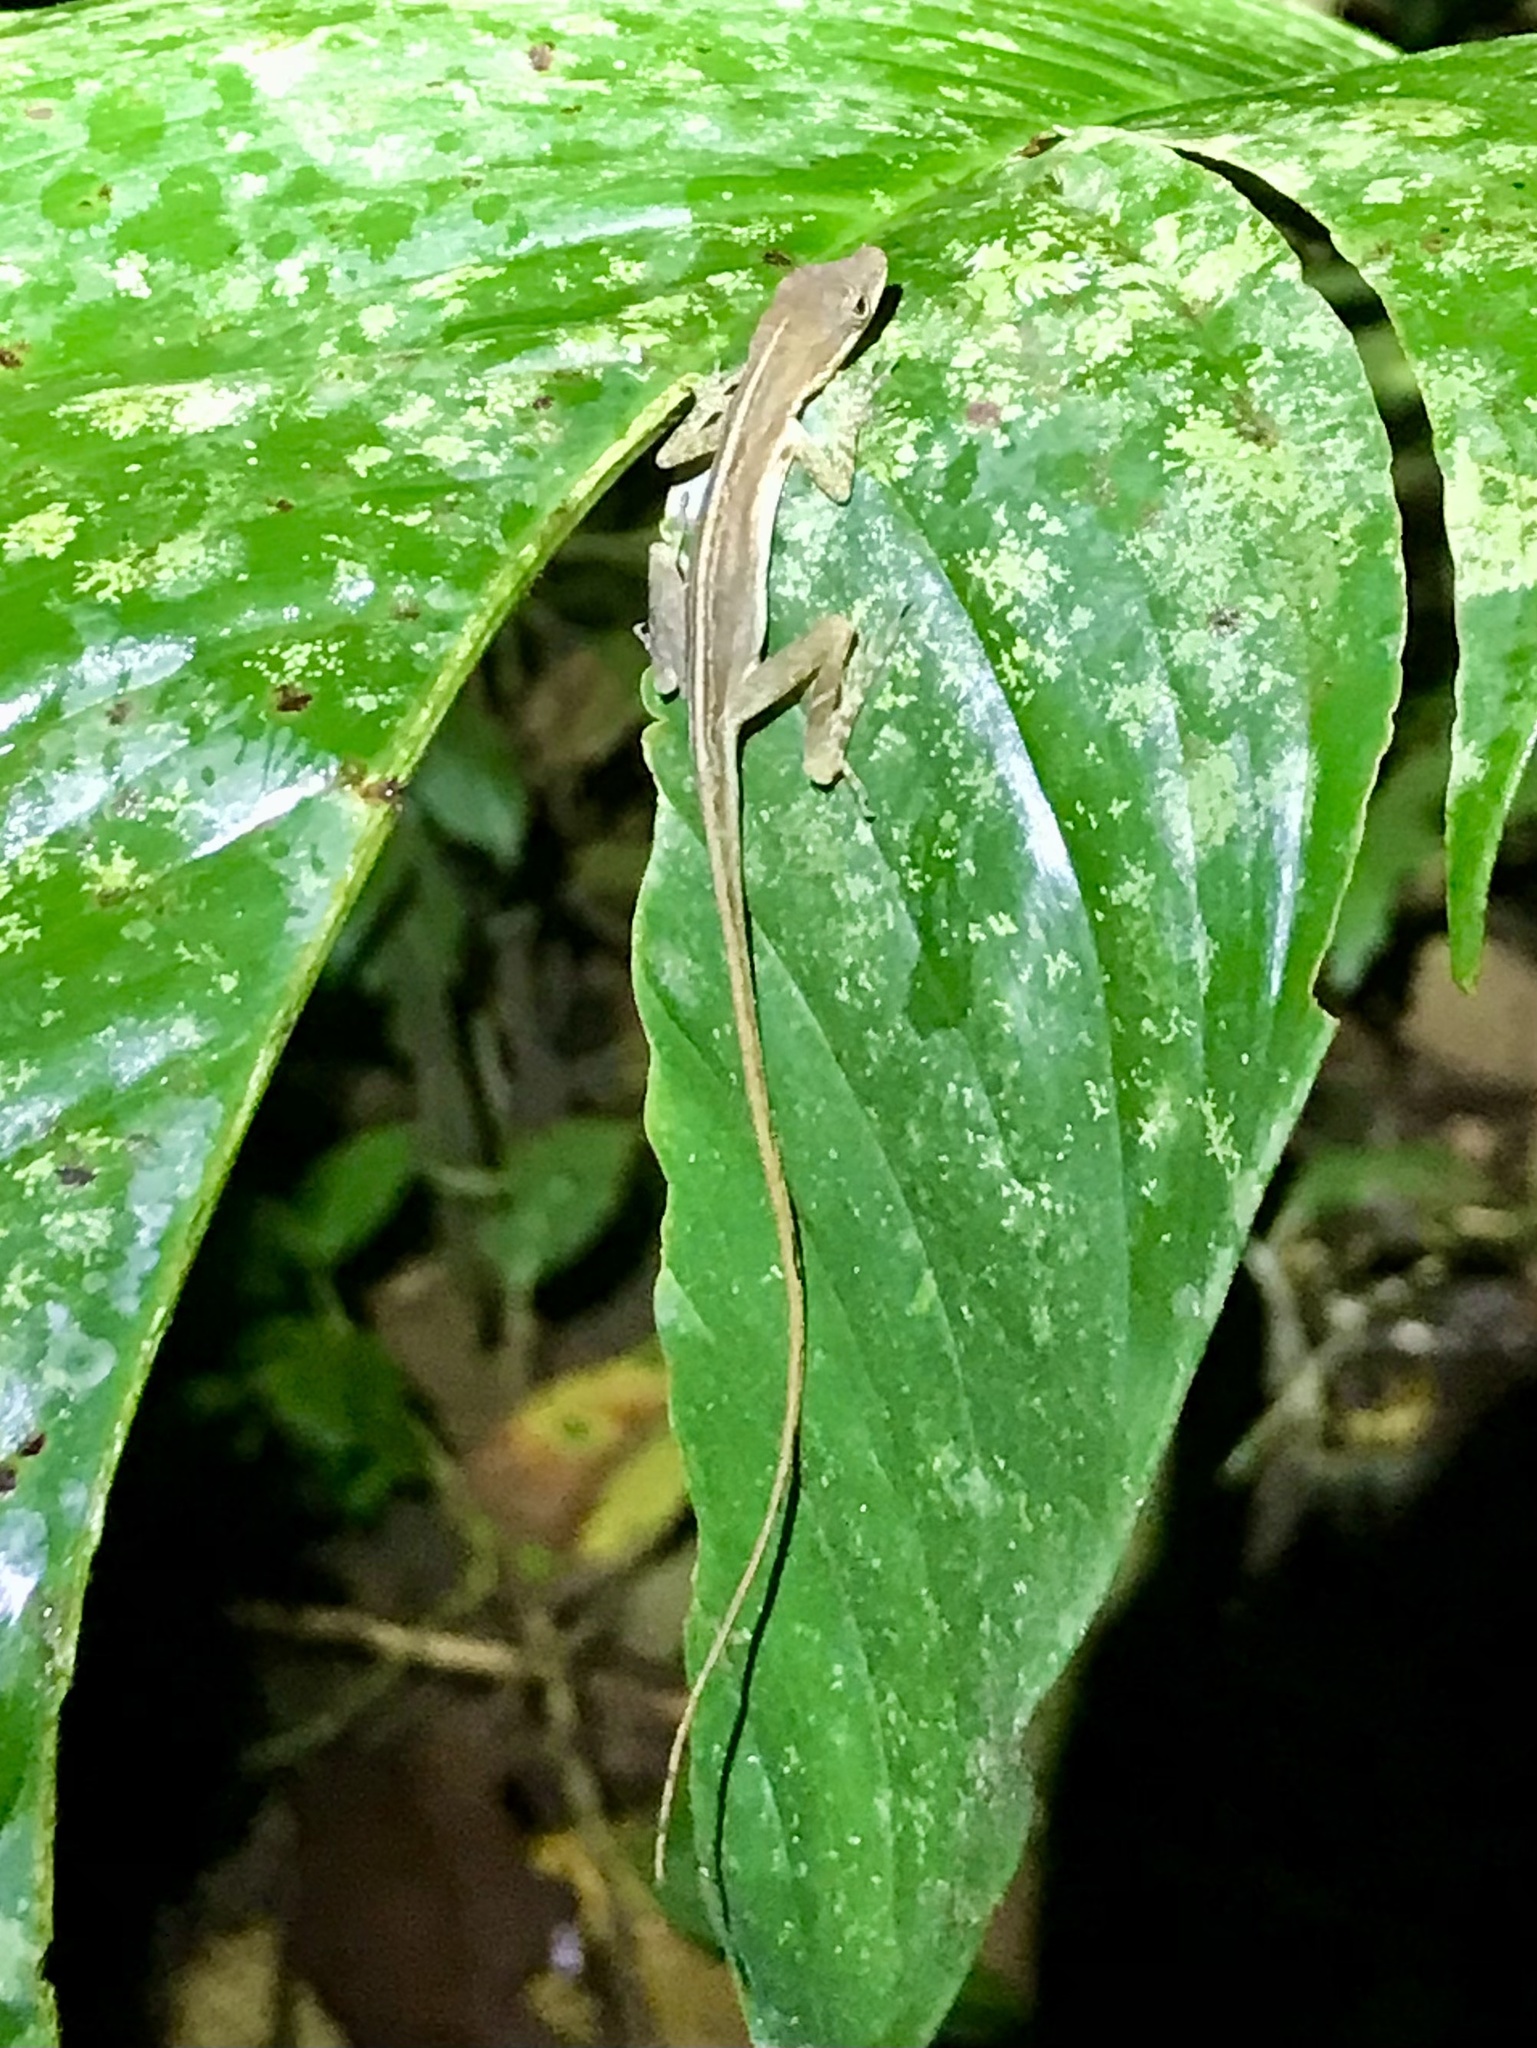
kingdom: Animalia
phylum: Chordata
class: Squamata
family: Dactyloidae
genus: Anolis
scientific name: Anolis limifrons
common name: Border anole
